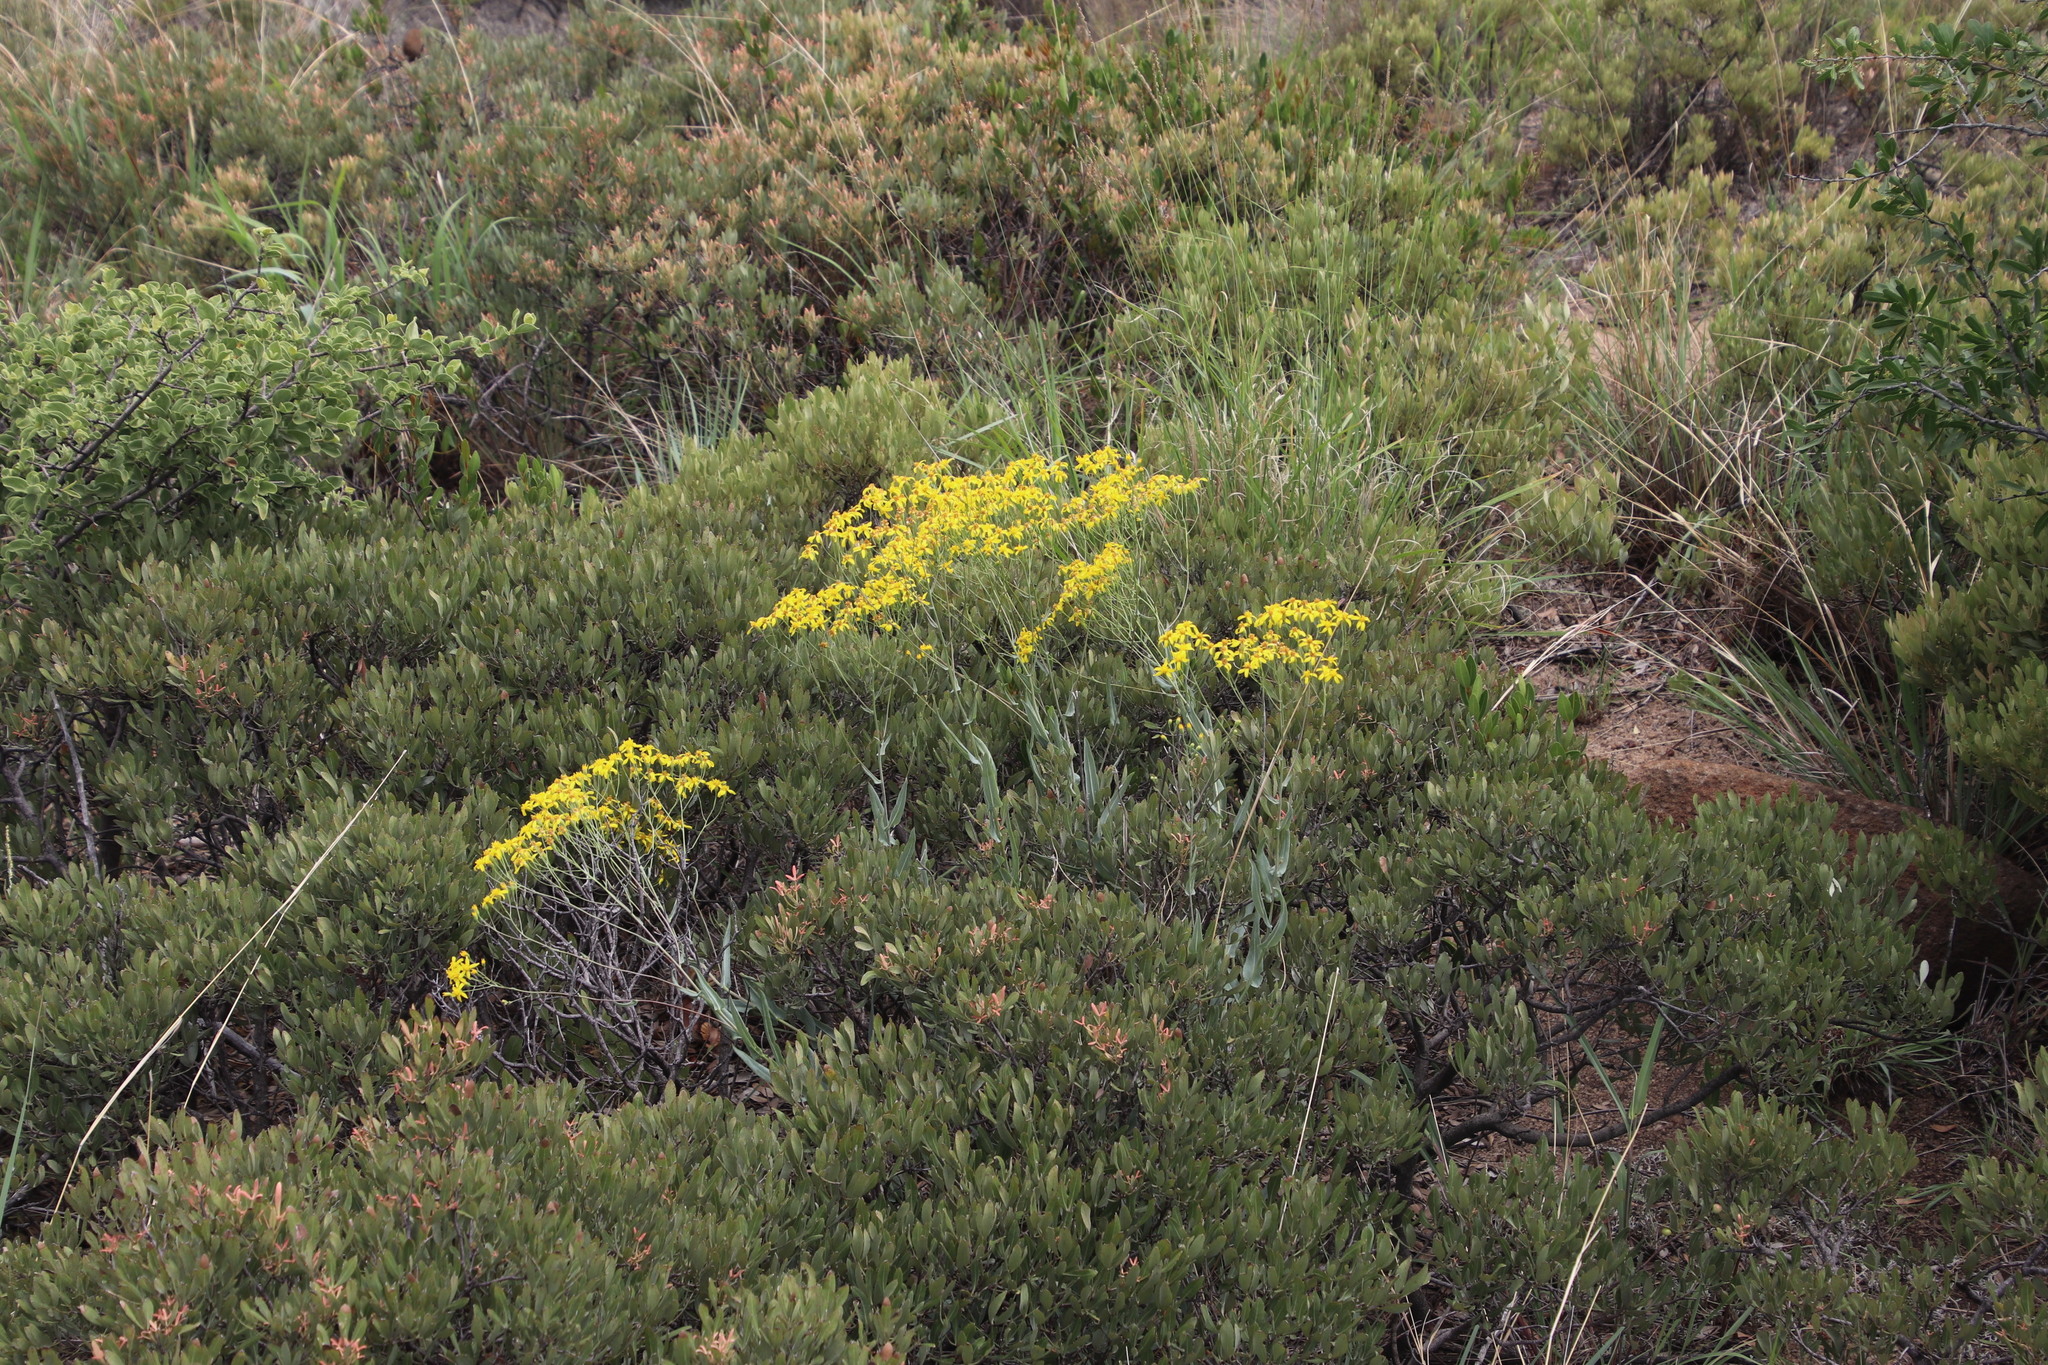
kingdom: Plantae
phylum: Tracheophyta
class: Magnoliopsida
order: Asterales
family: Asteraceae
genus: Senecio
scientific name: Senecio venosus
